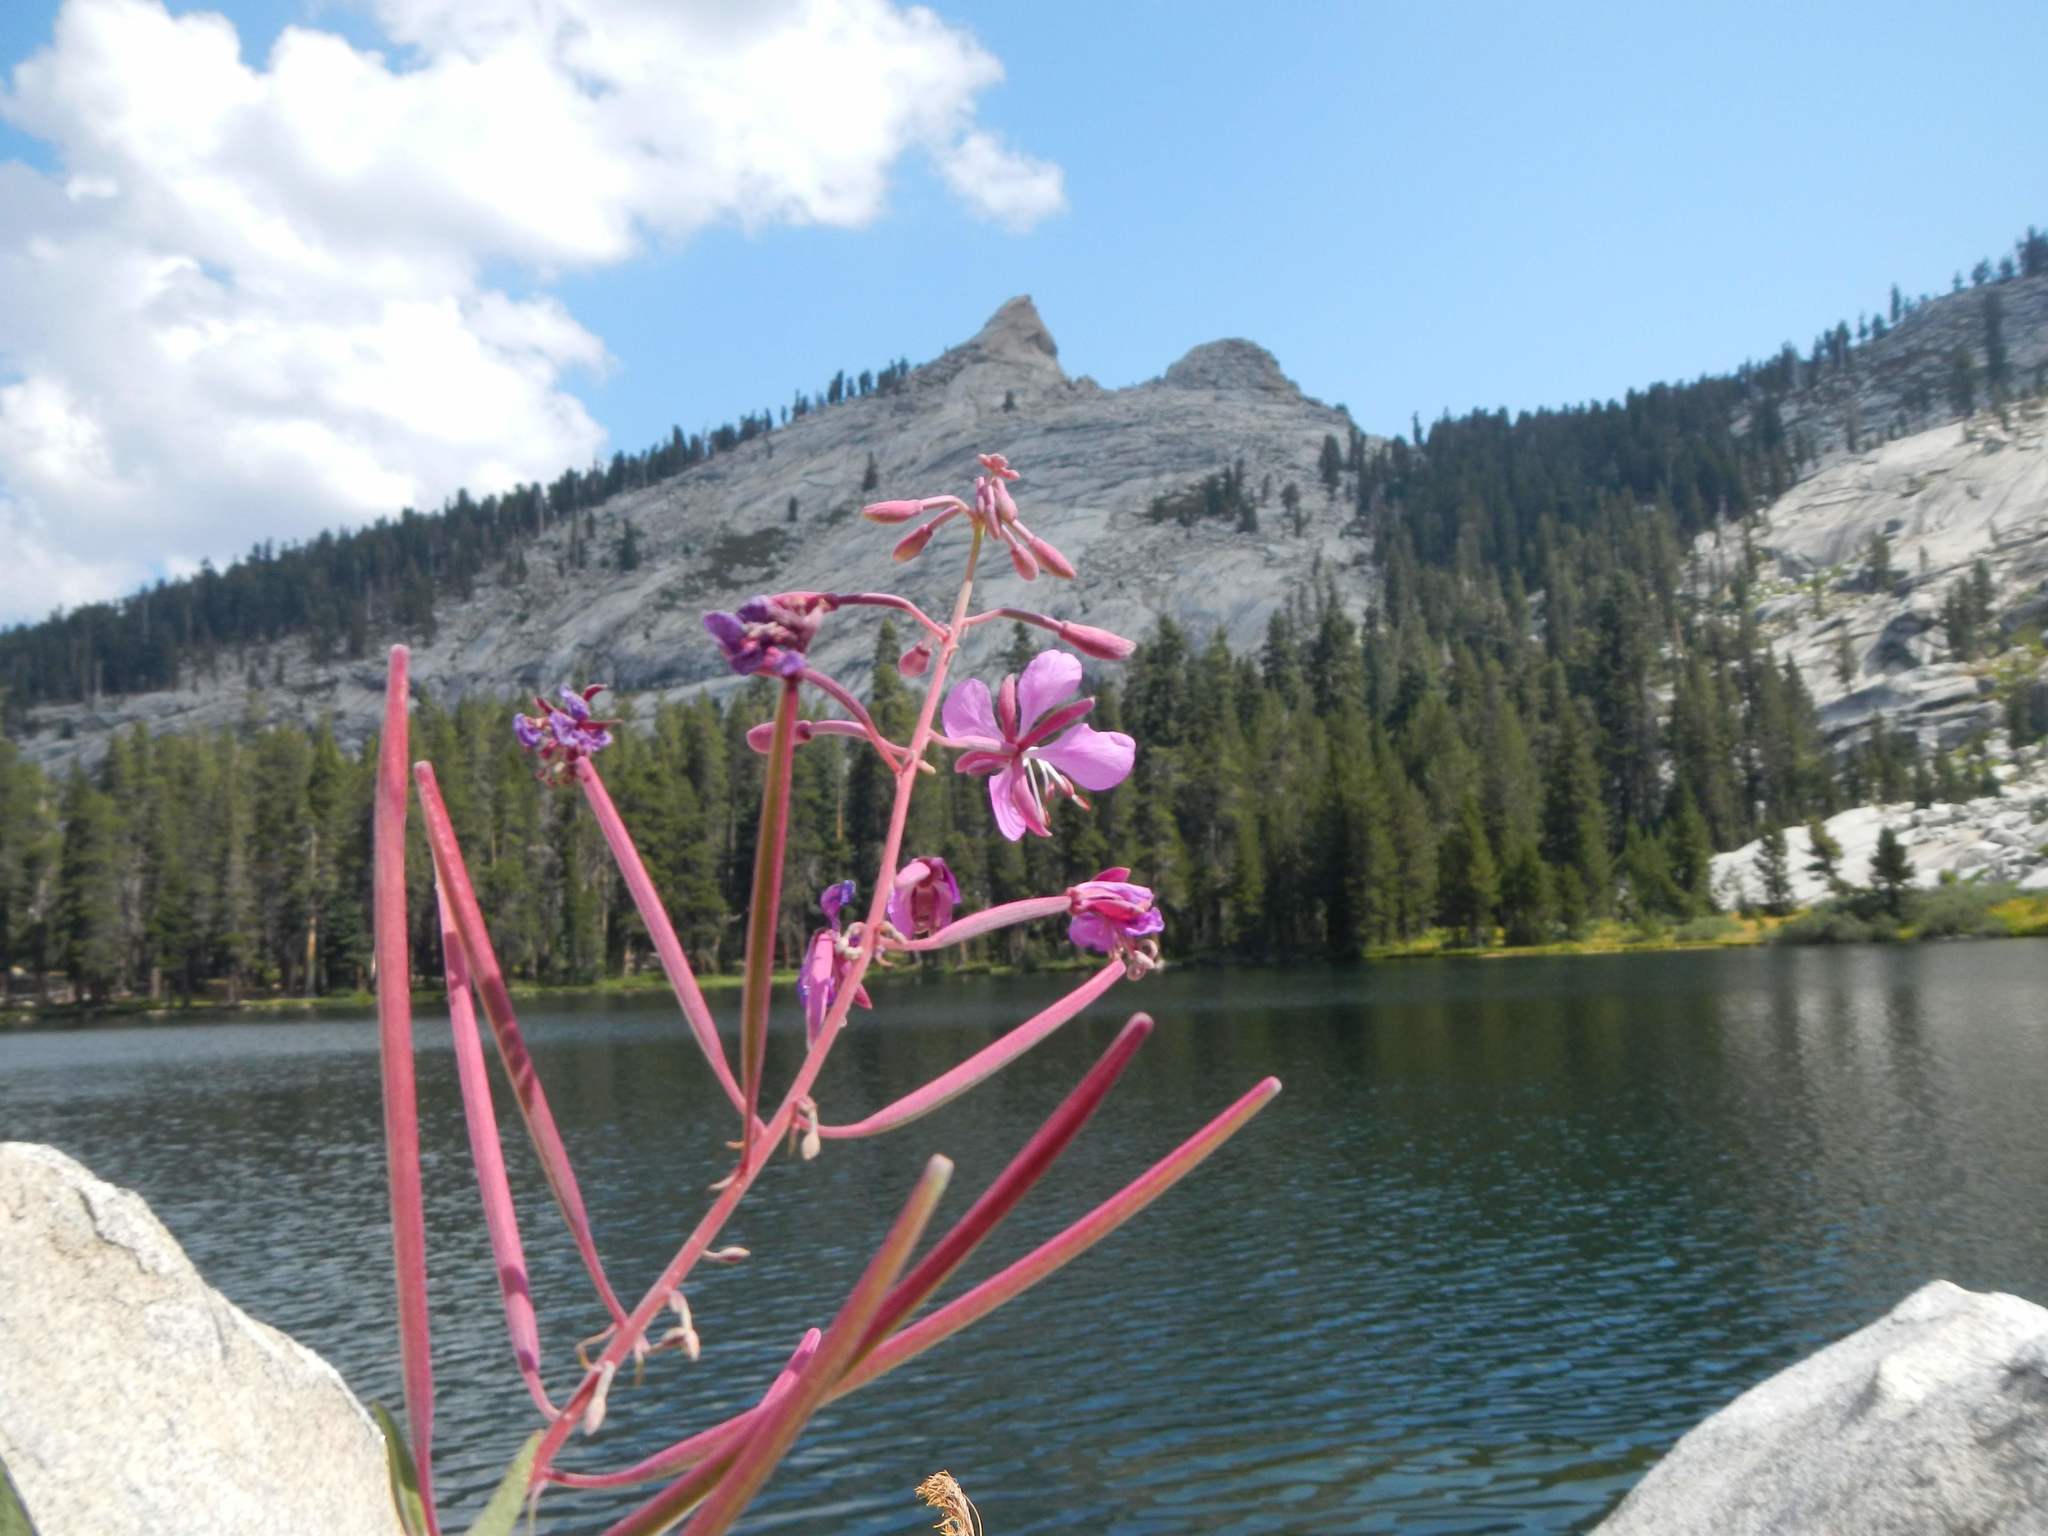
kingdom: Plantae
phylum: Tracheophyta
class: Magnoliopsida
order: Myrtales
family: Onagraceae
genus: Chamaenerion
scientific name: Chamaenerion angustifolium
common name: Fireweed
